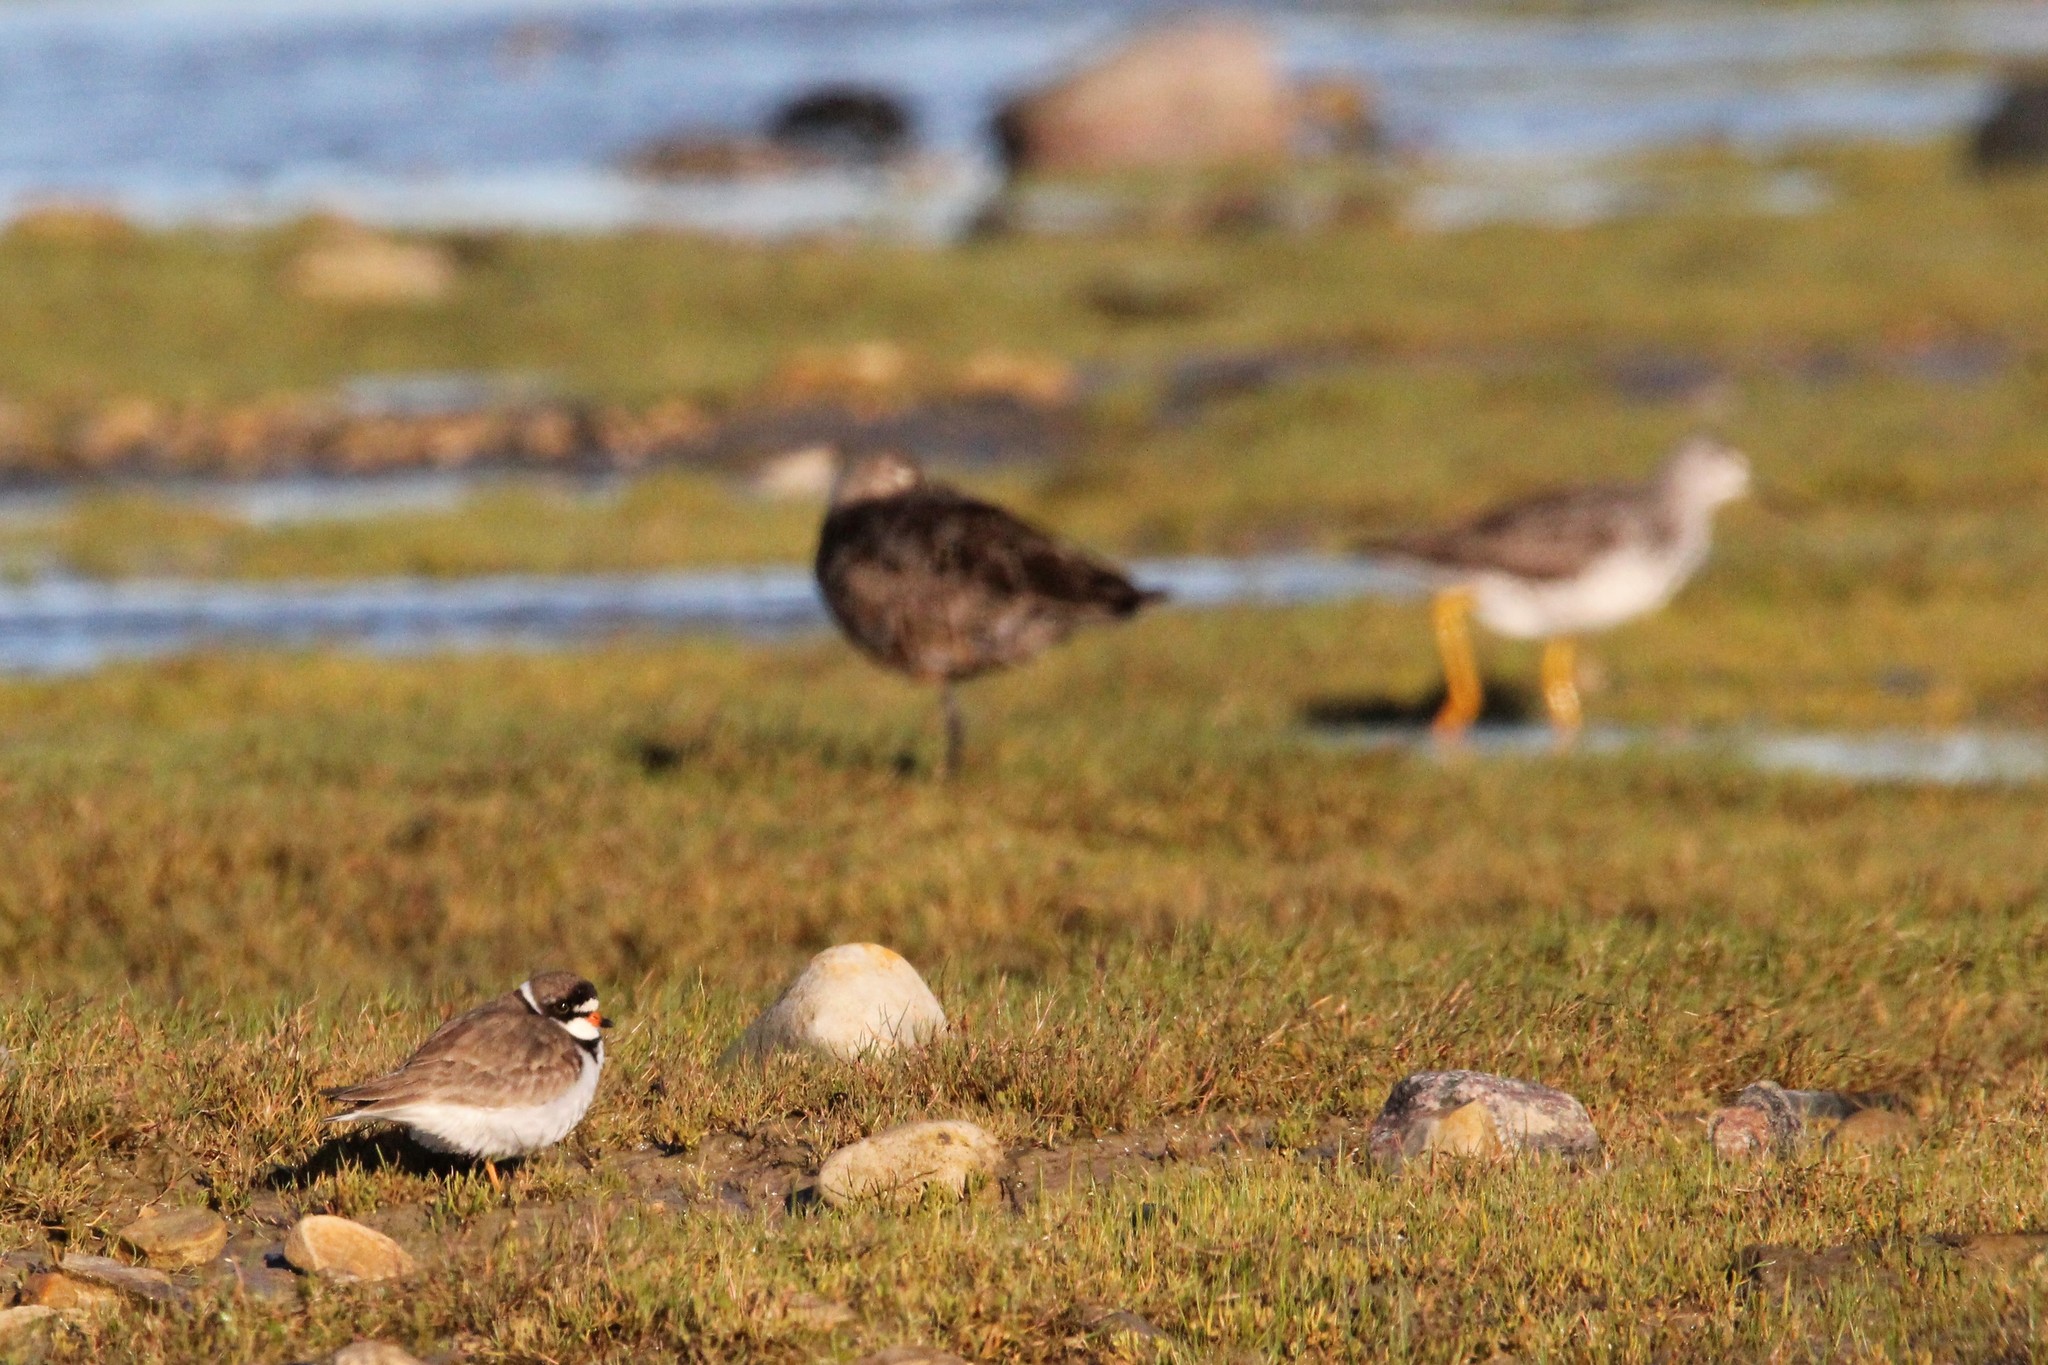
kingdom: Animalia
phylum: Chordata
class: Aves
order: Charadriiformes
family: Charadriidae
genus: Charadrius
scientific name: Charadrius semipalmatus
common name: Semipalmated plover
